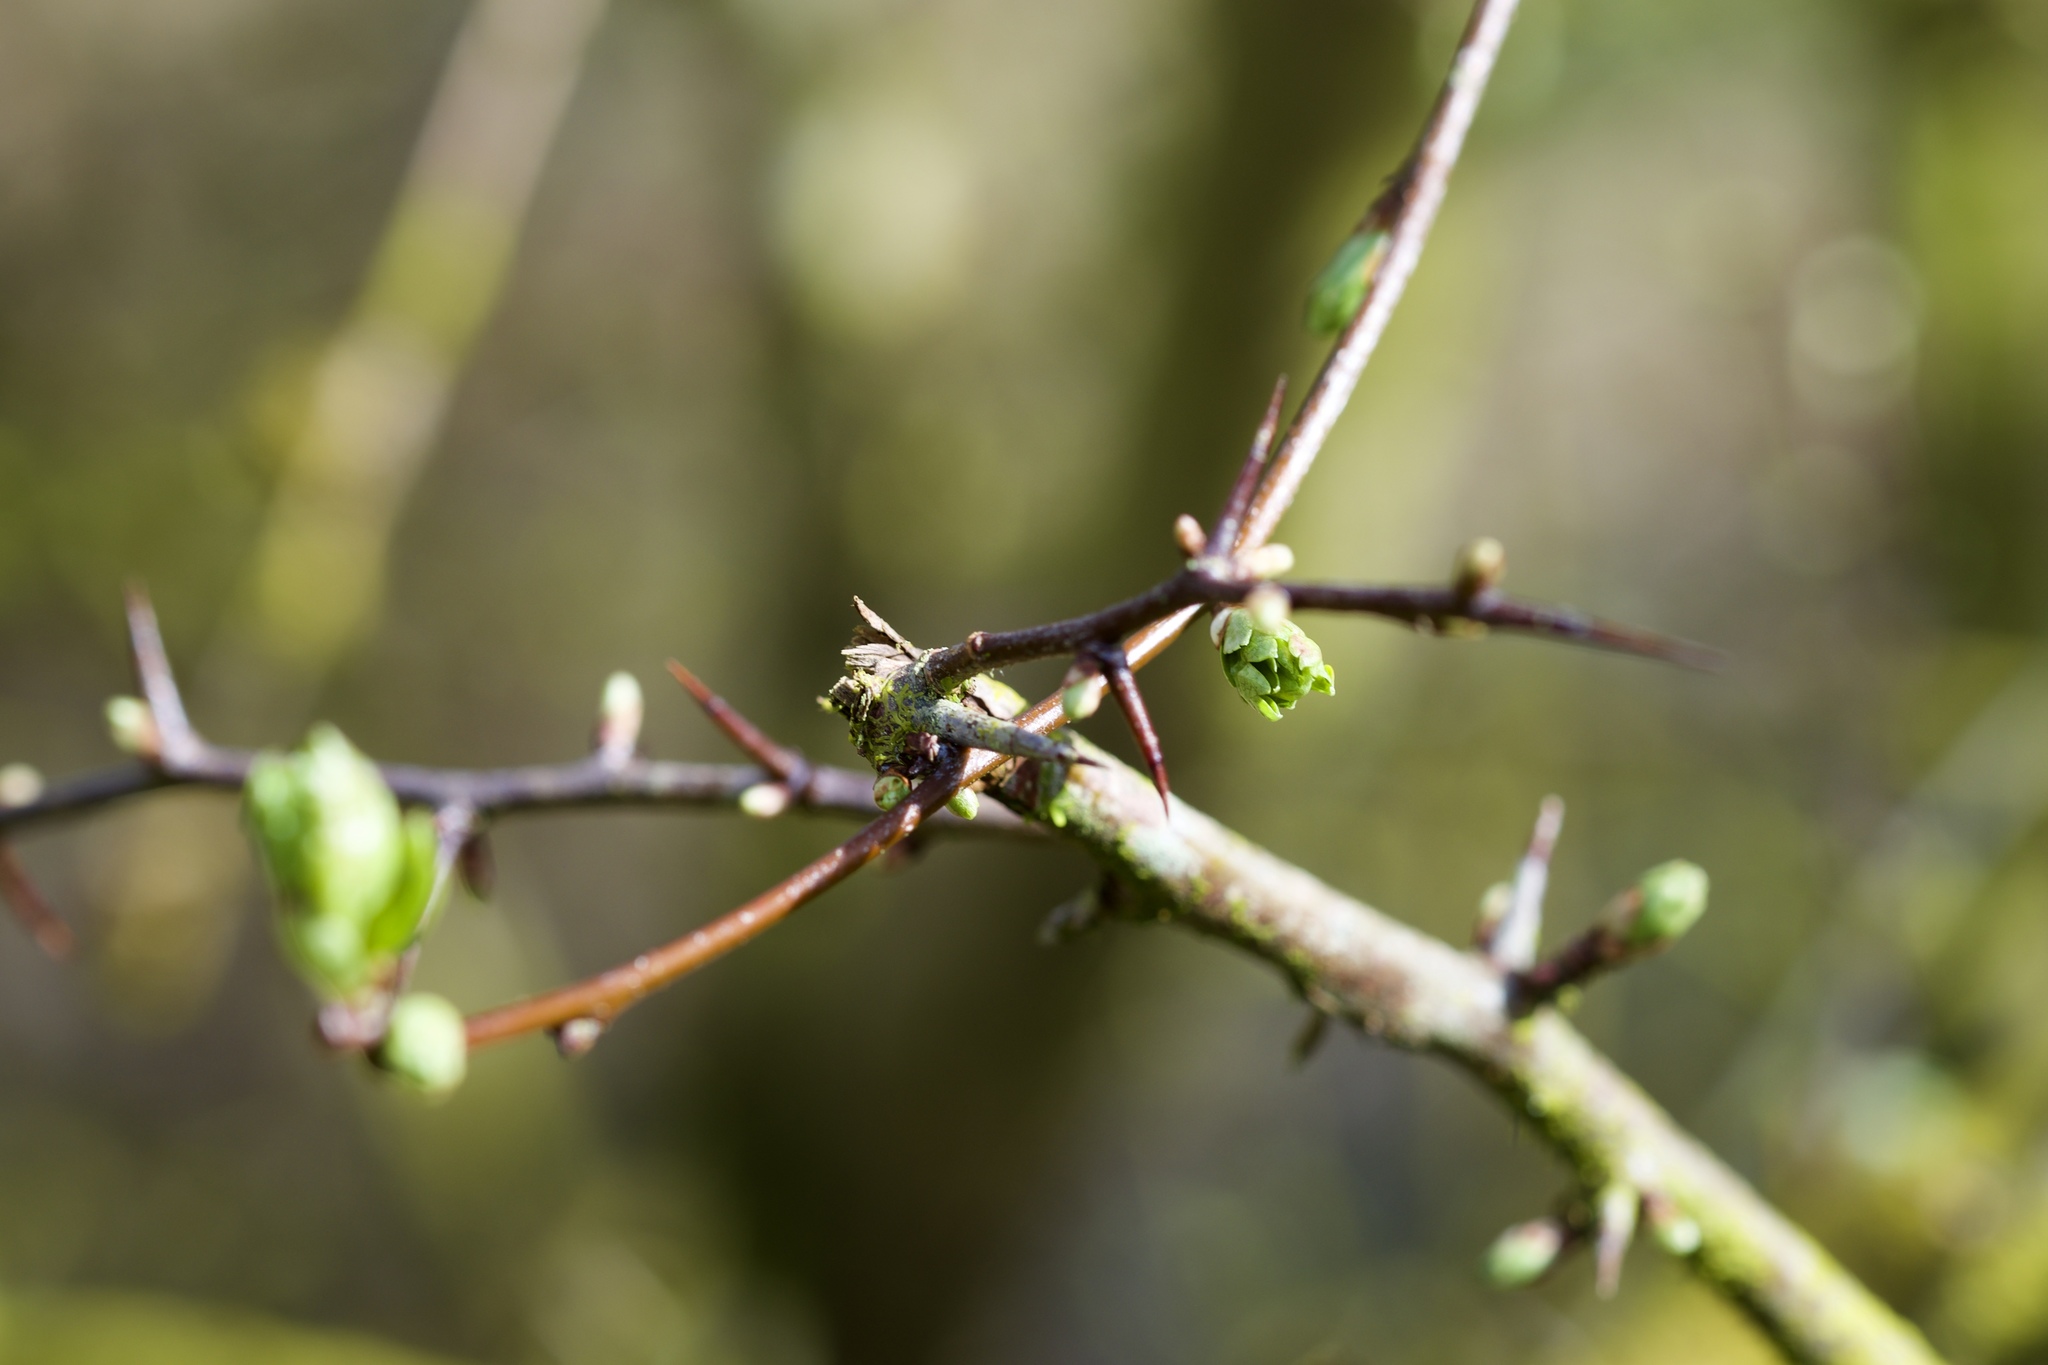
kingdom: Plantae
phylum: Tracheophyta
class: Magnoliopsida
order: Rosales
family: Rosaceae
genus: Crataegus
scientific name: Crataegus monogyna
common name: Hawthorn
